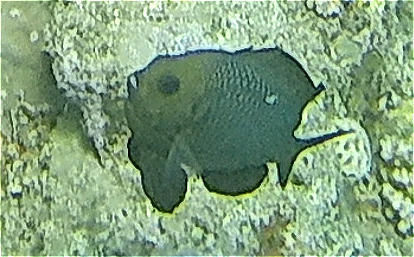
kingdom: Animalia
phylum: Chordata
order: Perciformes
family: Pomacentridae
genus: Dascyllus
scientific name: Dascyllus trimaculatus
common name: Threespot dascyllus
